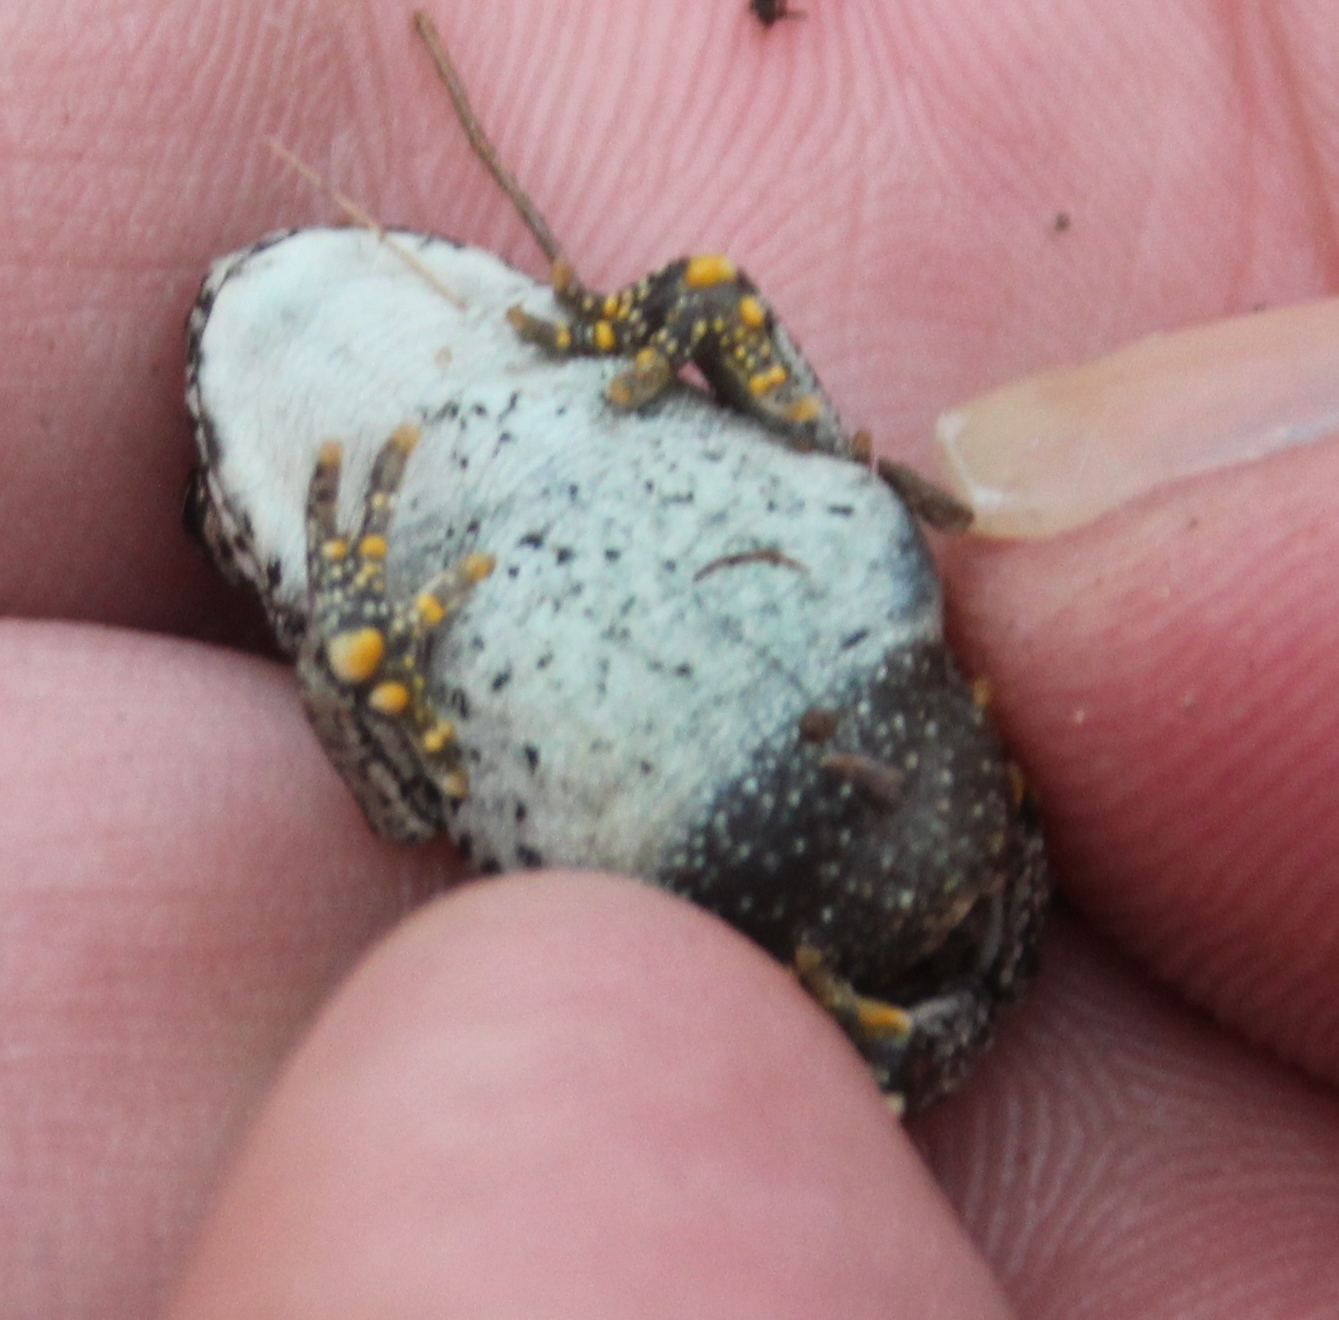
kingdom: Animalia
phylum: Chordata
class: Amphibia
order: Anura
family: Bufonidae
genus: Anaxyrus
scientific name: Anaxyrus boreas
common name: Western toad
